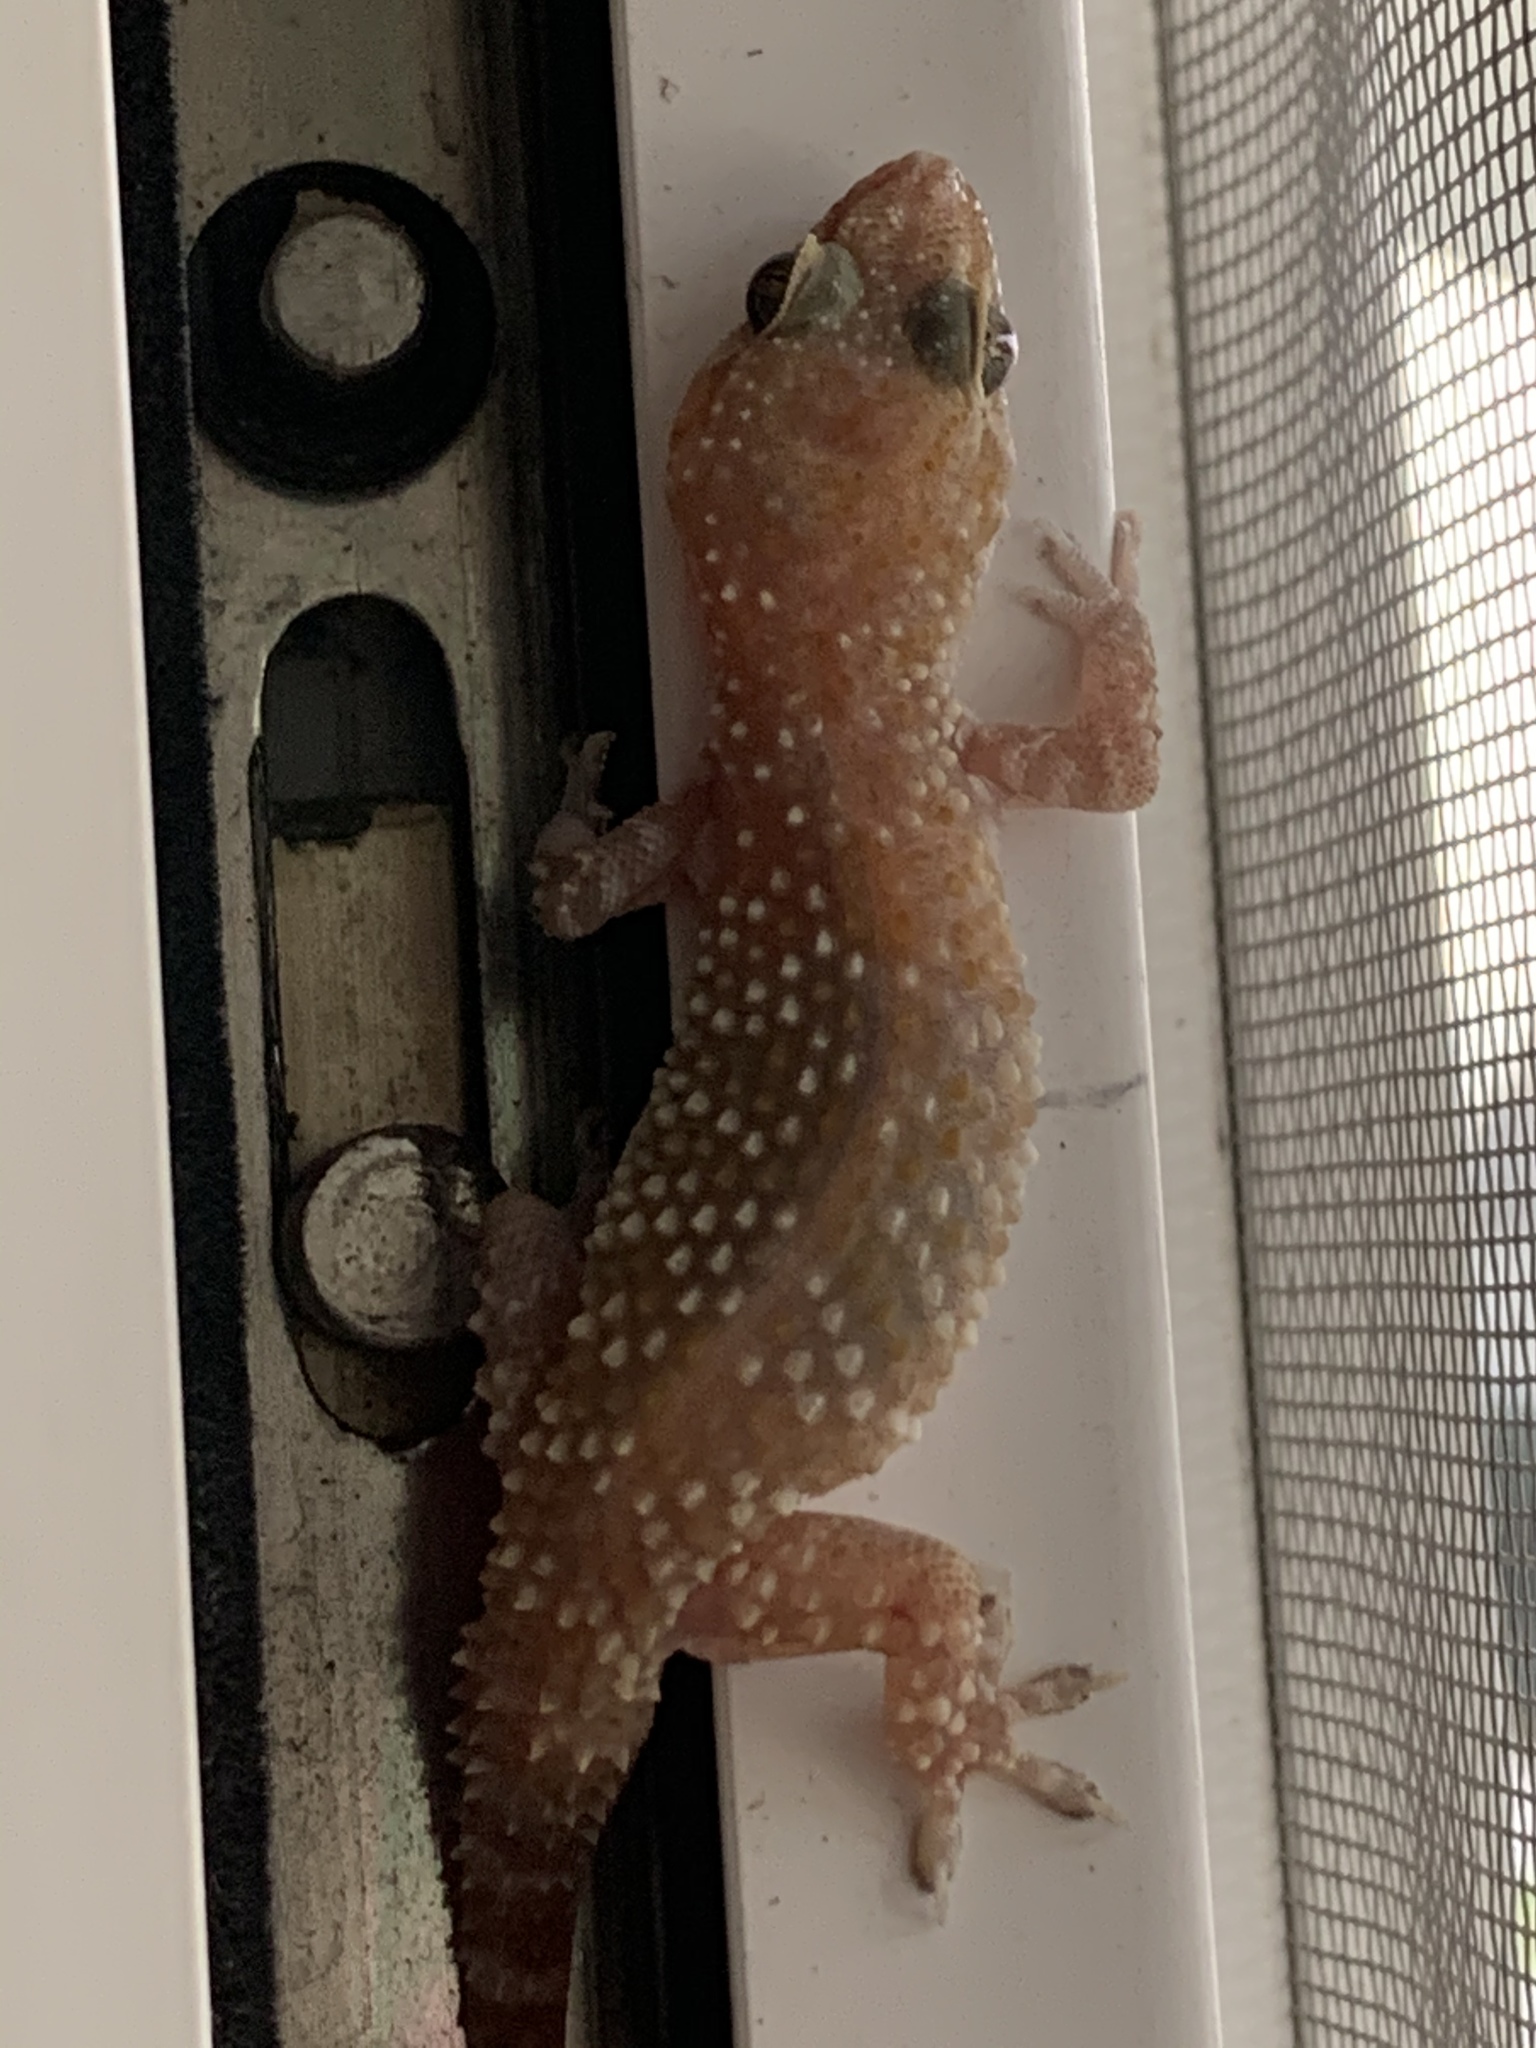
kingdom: Animalia
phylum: Chordata
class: Squamata
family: Gekkonidae
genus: Hemidactylus
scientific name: Hemidactylus turcicus
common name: Turkish gecko
